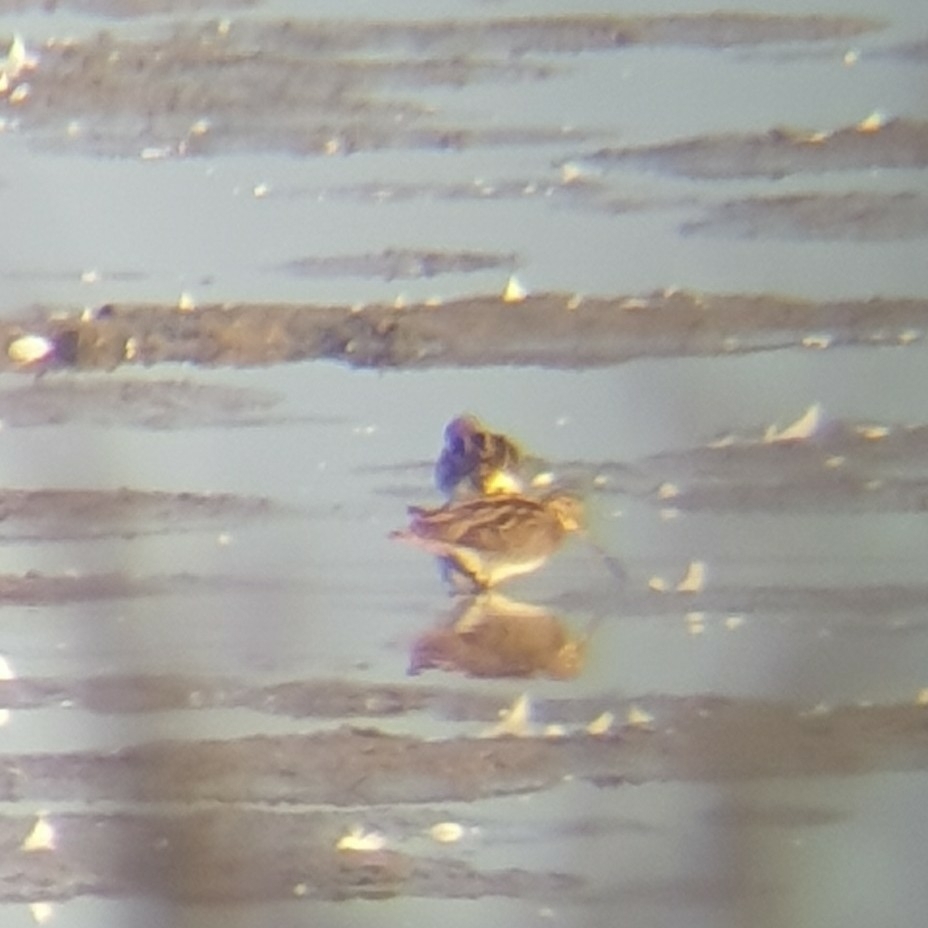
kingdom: Animalia
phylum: Chordata
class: Aves
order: Charadriiformes
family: Scolopacidae
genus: Gallinago
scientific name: Gallinago gallinago
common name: Common snipe
